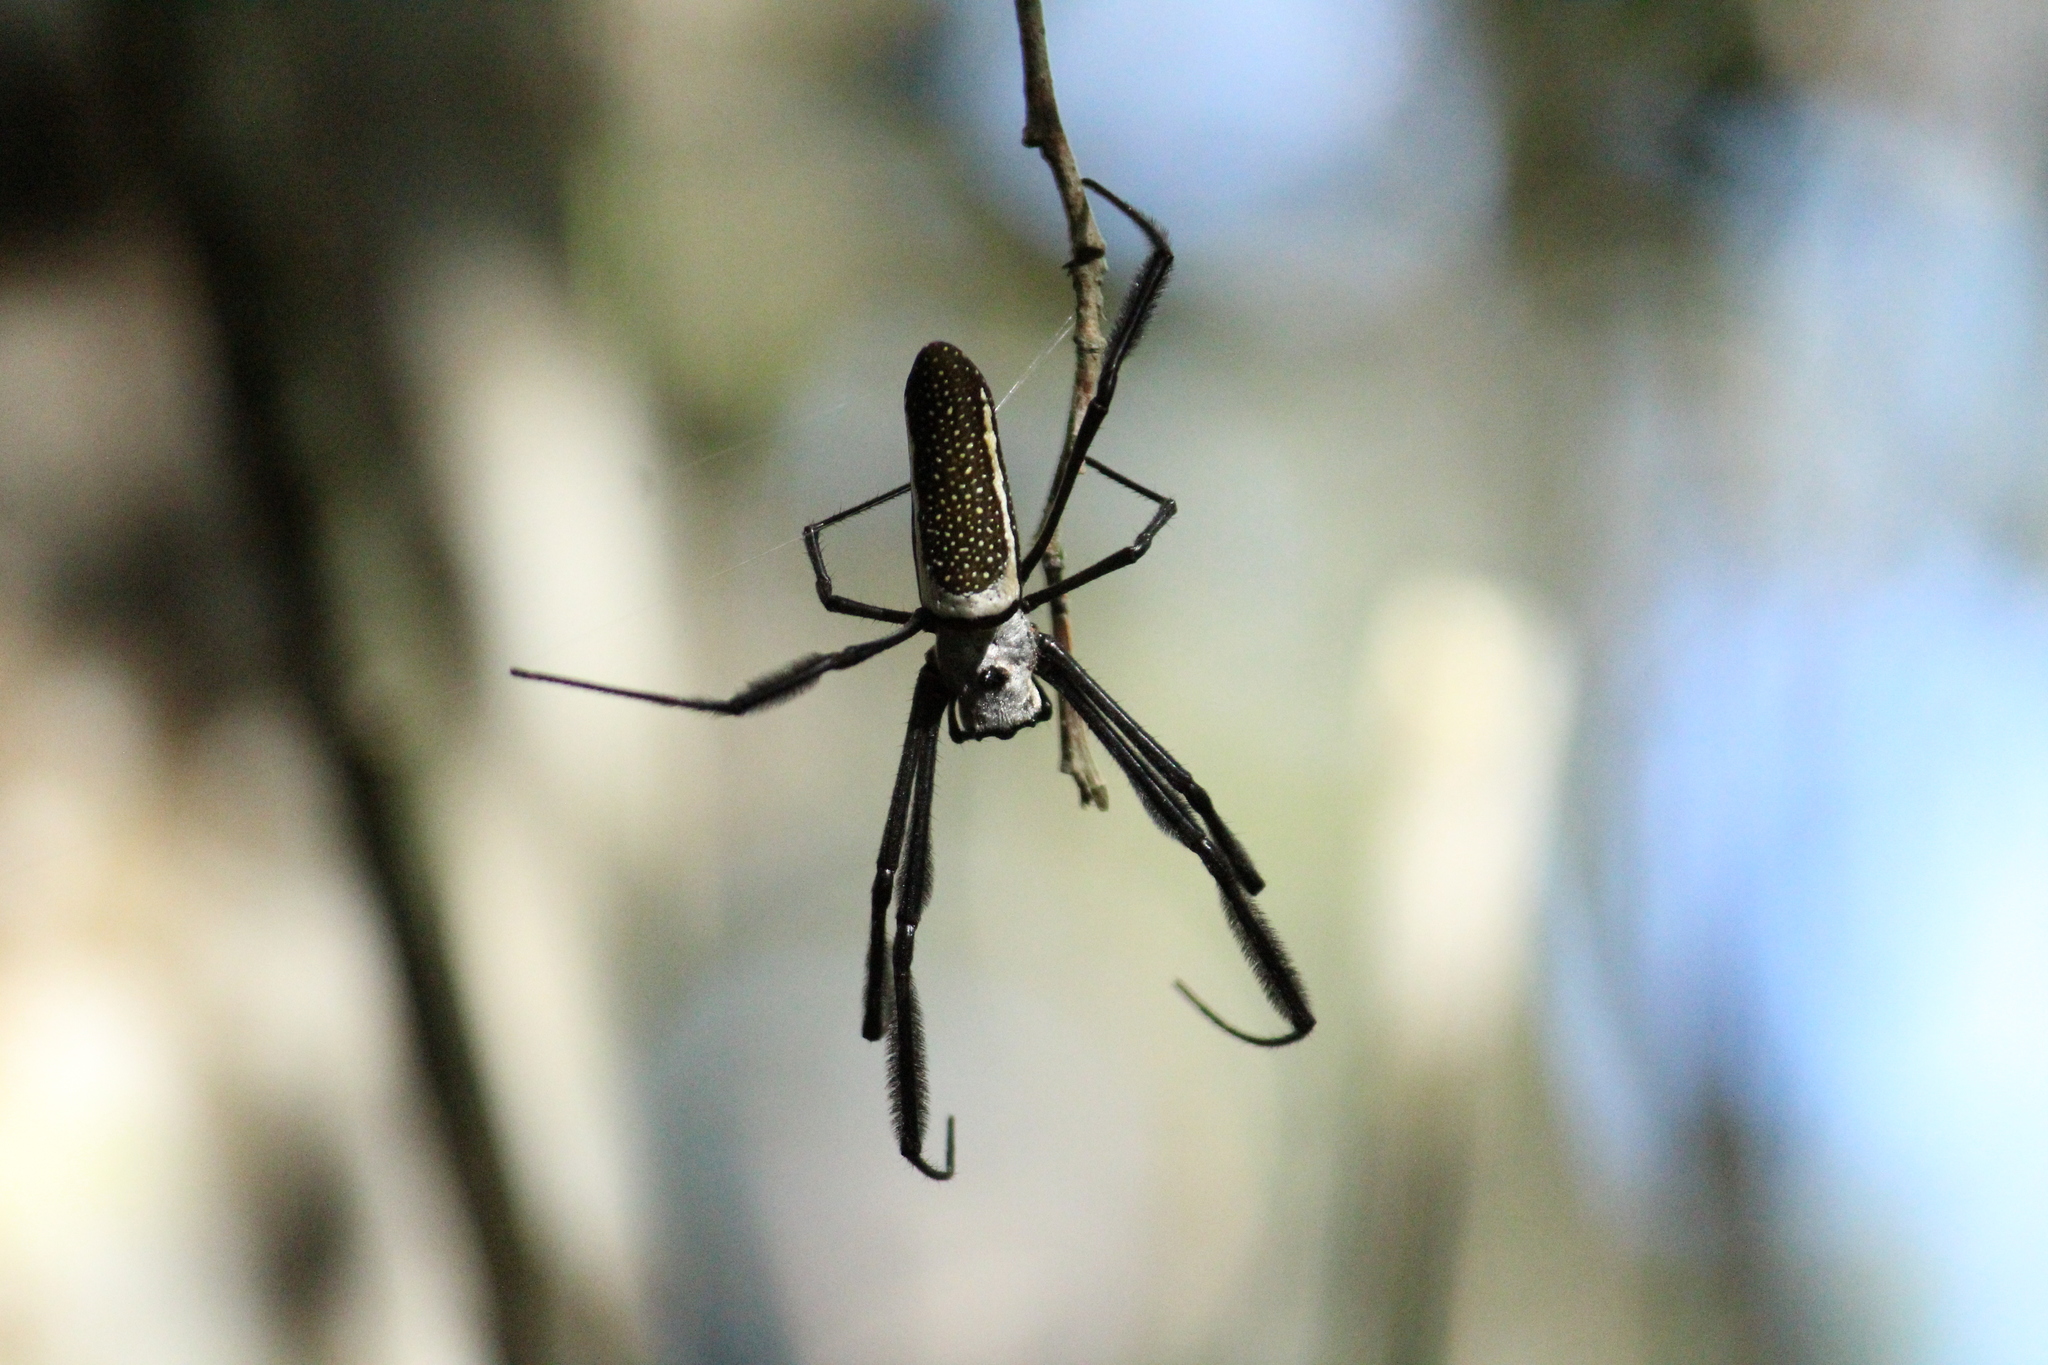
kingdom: Animalia
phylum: Arthropoda
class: Arachnida
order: Araneae
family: Araneidae
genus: Trichonephila
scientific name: Trichonephila clavipes
